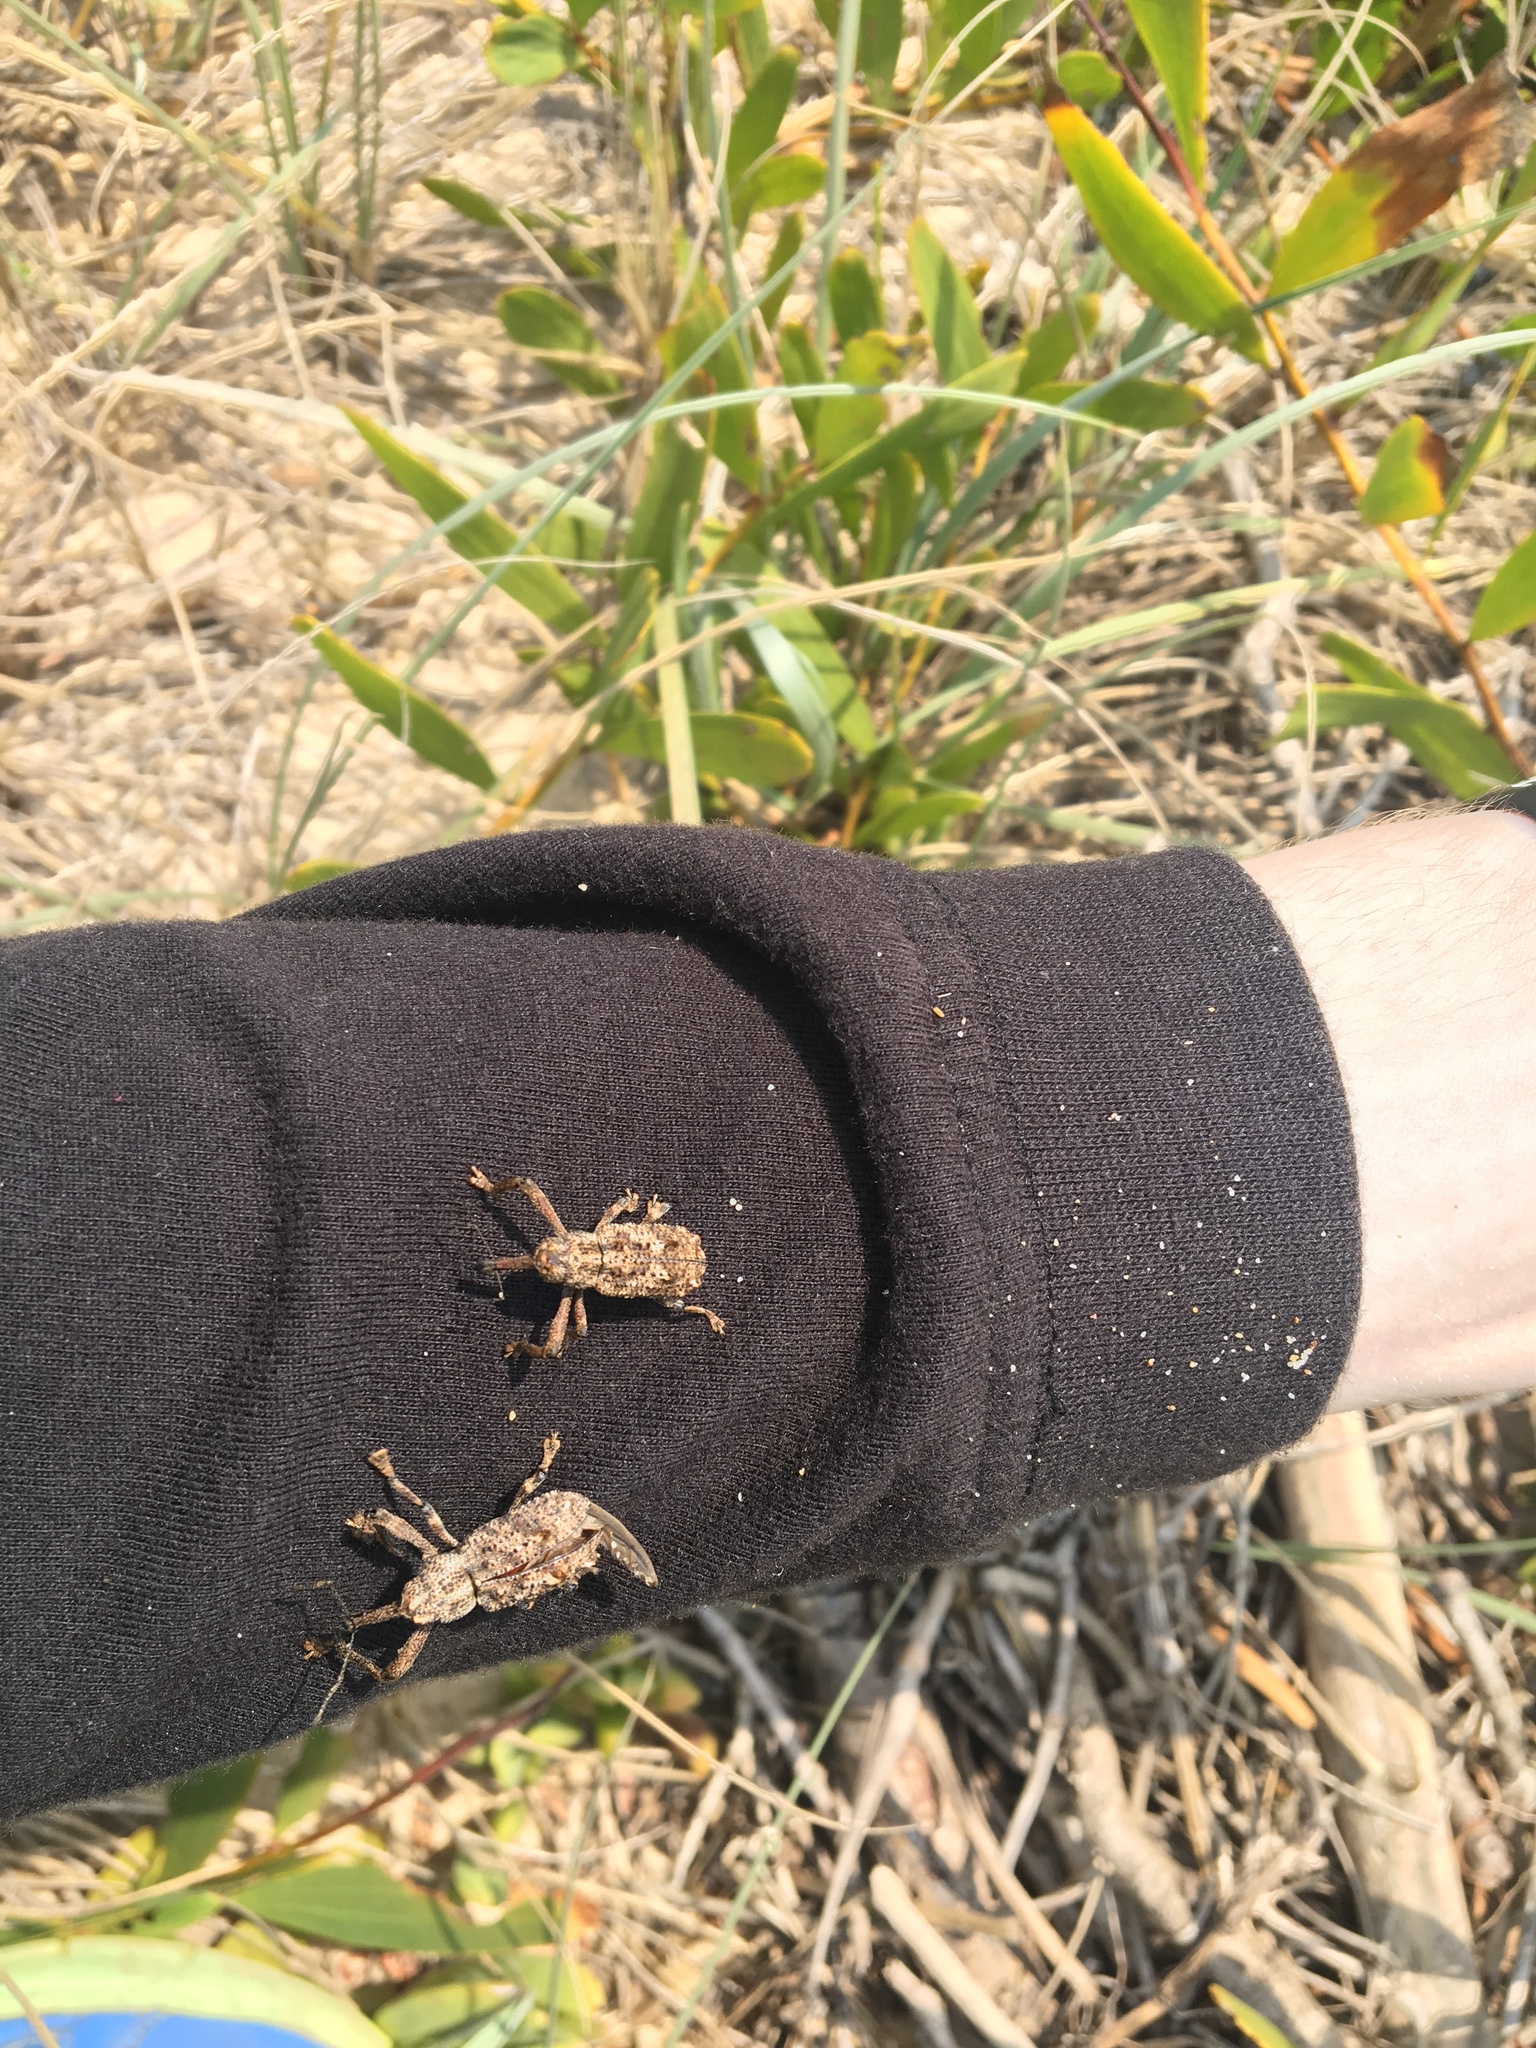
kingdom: Animalia
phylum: Arthropoda
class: Insecta
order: Coleoptera
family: Curculionidae
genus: Orthorhinus
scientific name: Orthorhinus cylindrirostris
